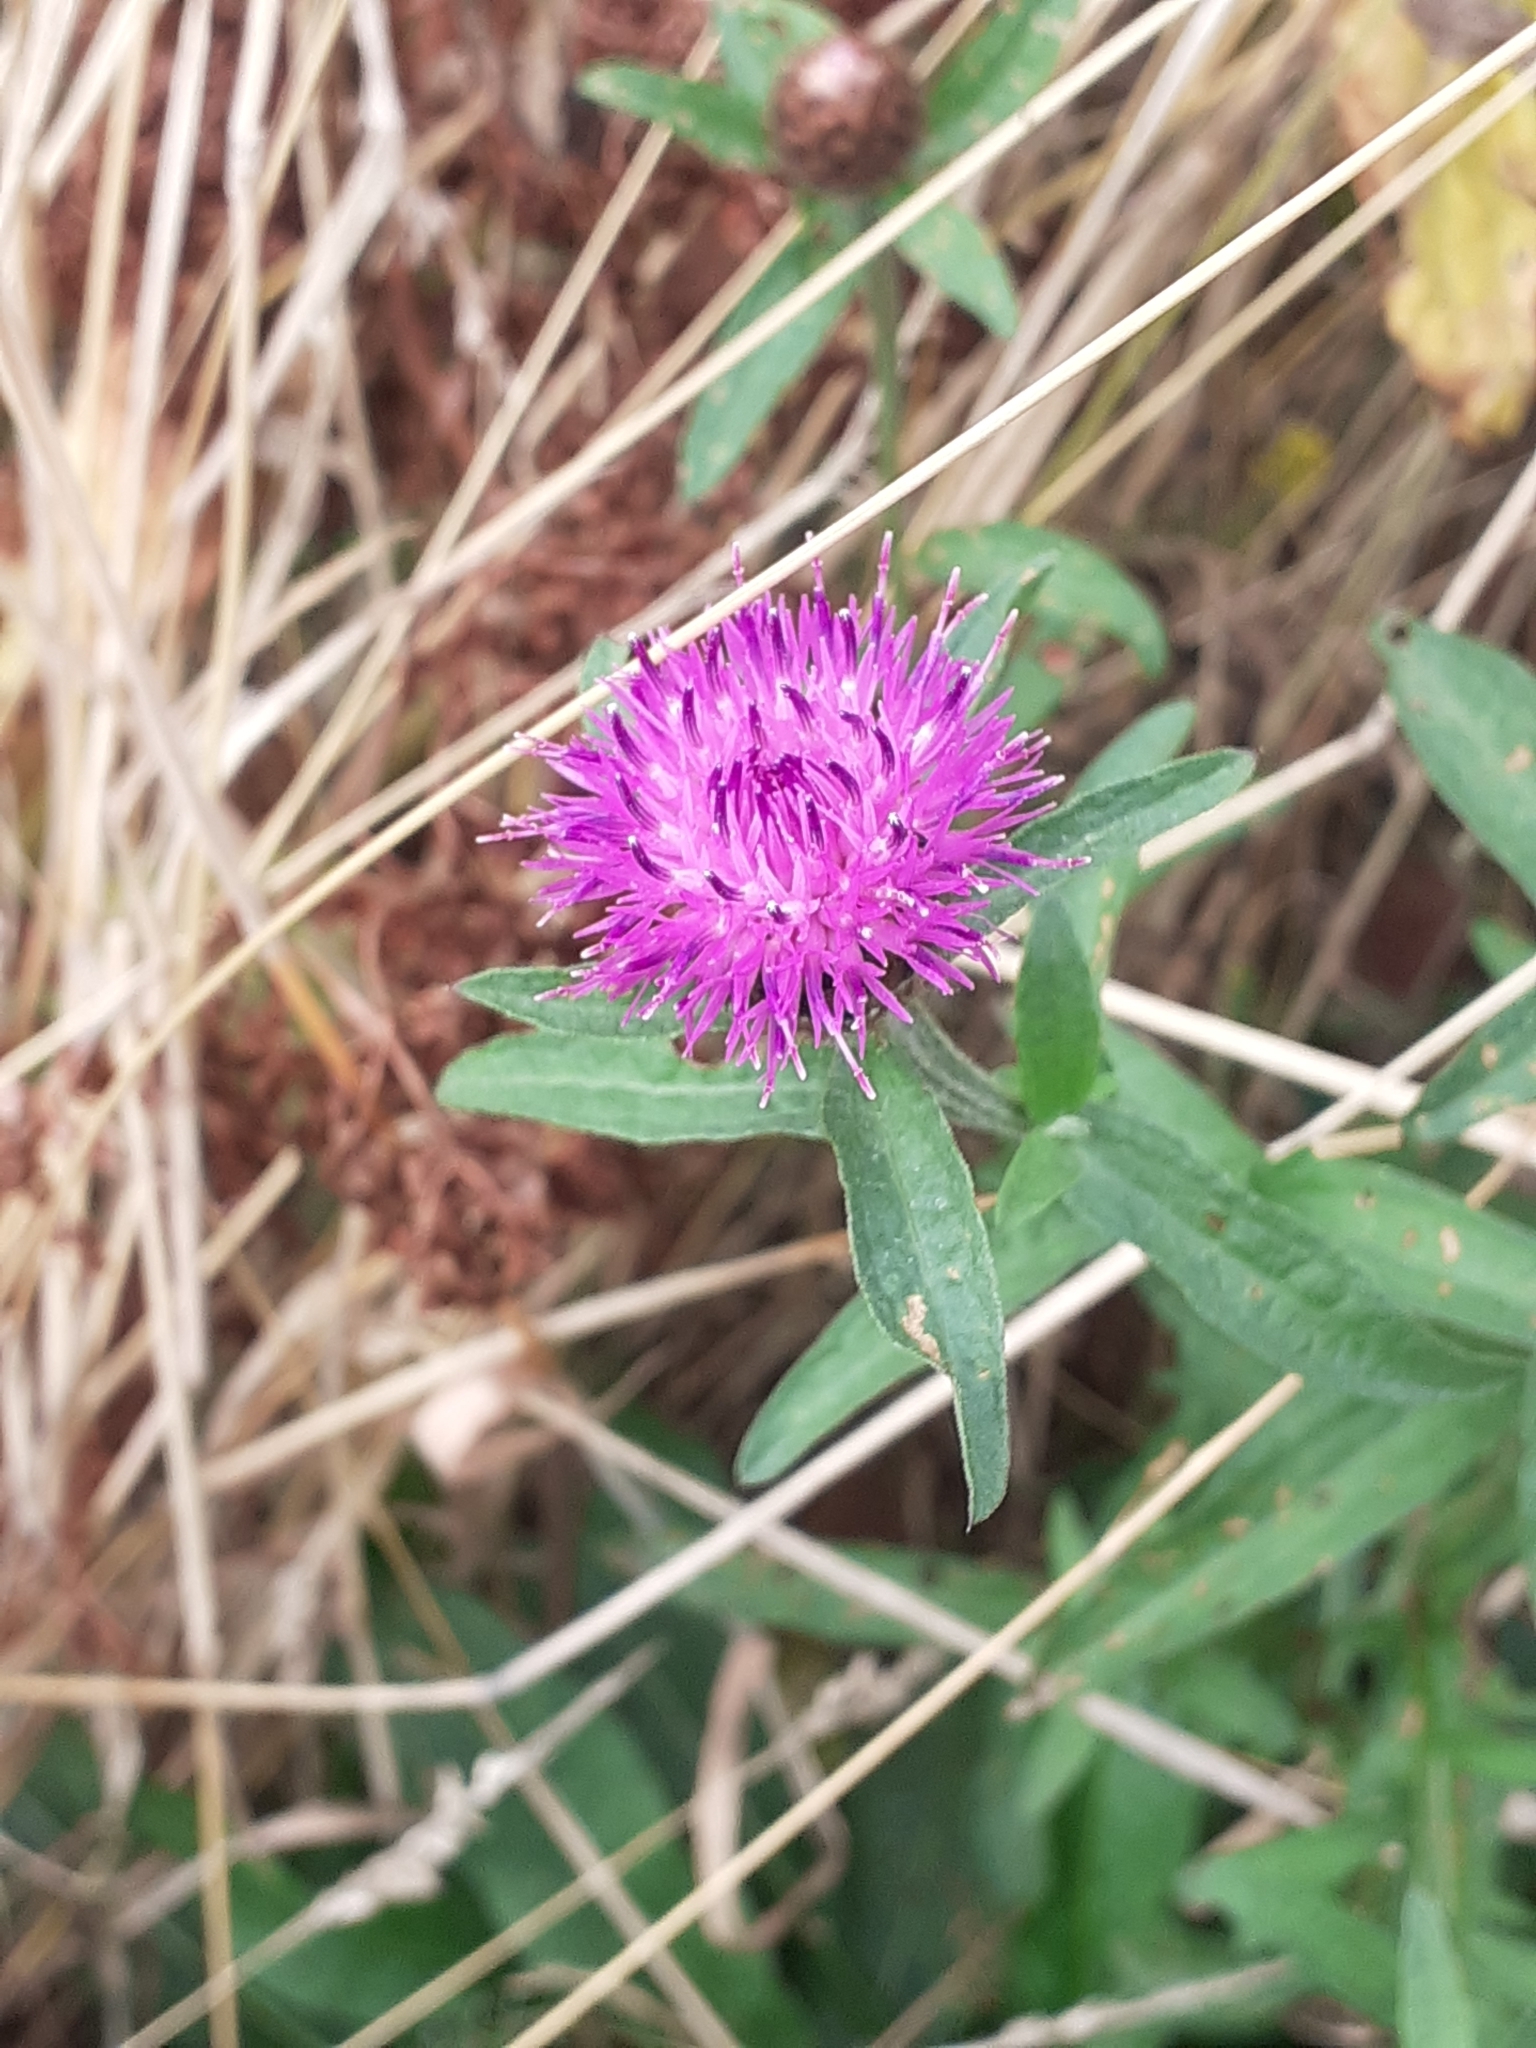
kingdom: Plantae
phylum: Tracheophyta
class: Magnoliopsida
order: Asterales
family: Asteraceae
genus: Centaurea
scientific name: Centaurea nigra
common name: Lesser knapweed
